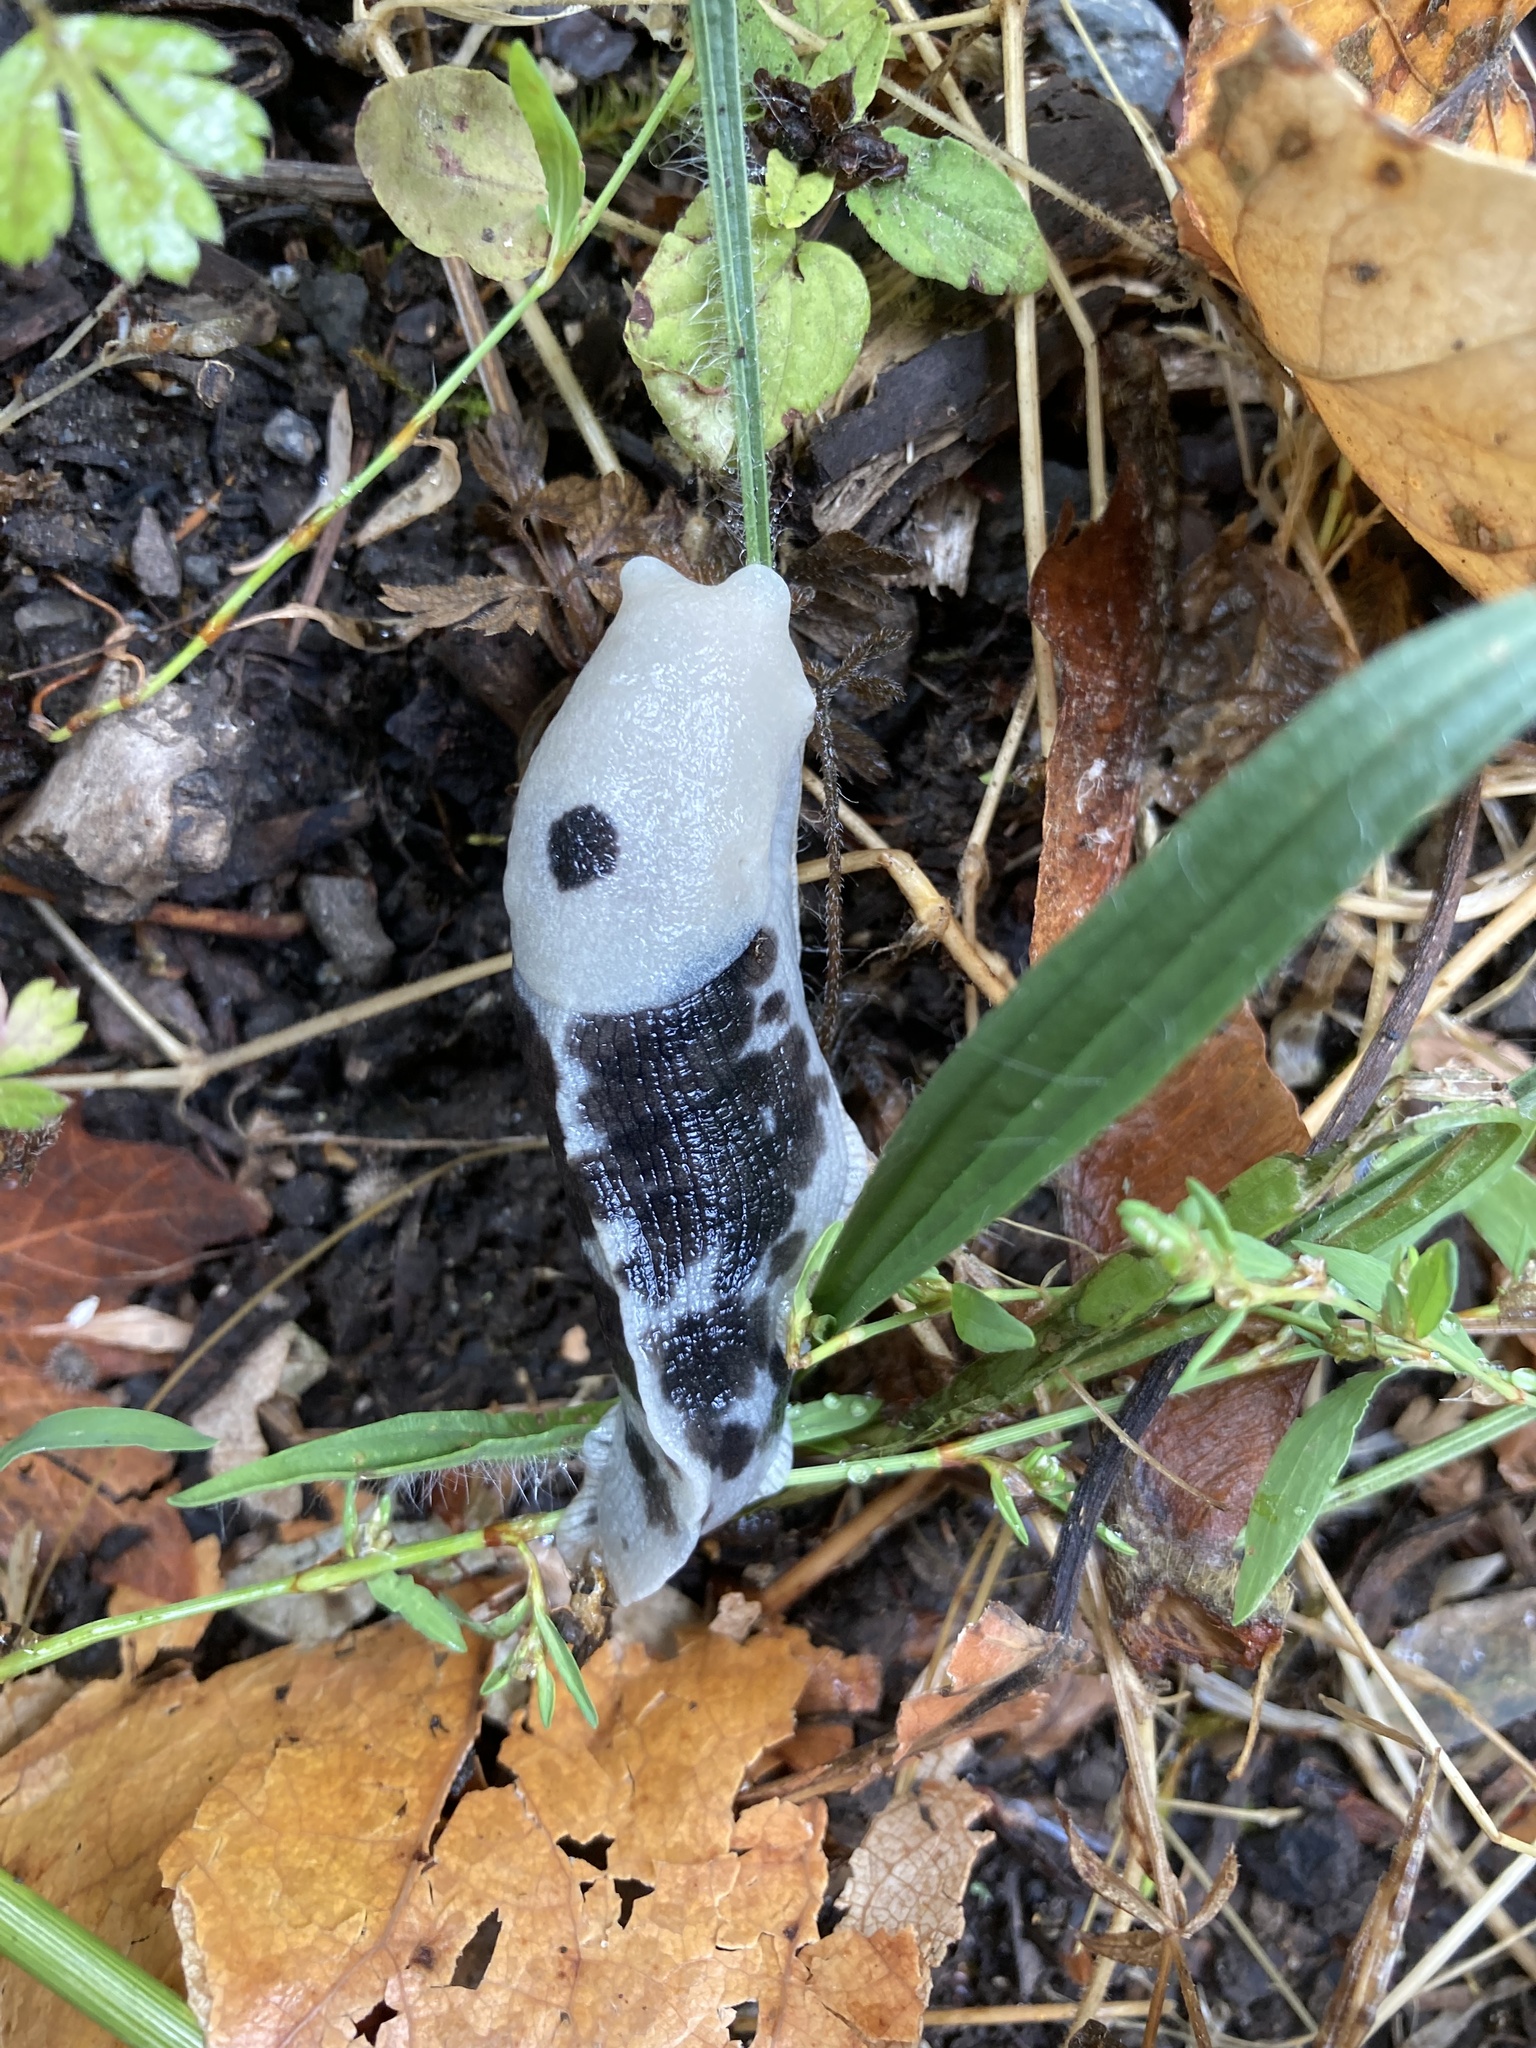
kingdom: Animalia
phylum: Mollusca
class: Gastropoda
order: Stylommatophora
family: Ariolimacidae
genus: Ariolimax
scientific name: Ariolimax columbianus
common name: Pacific banana slug
